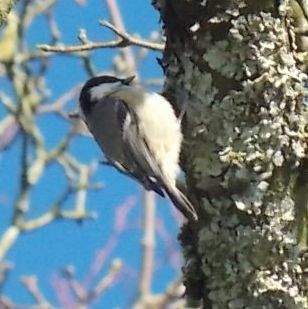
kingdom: Animalia
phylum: Chordata
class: Aves
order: Passeriformes
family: Paridae
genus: Periparus
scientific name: Periparus ater
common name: Coal tit
